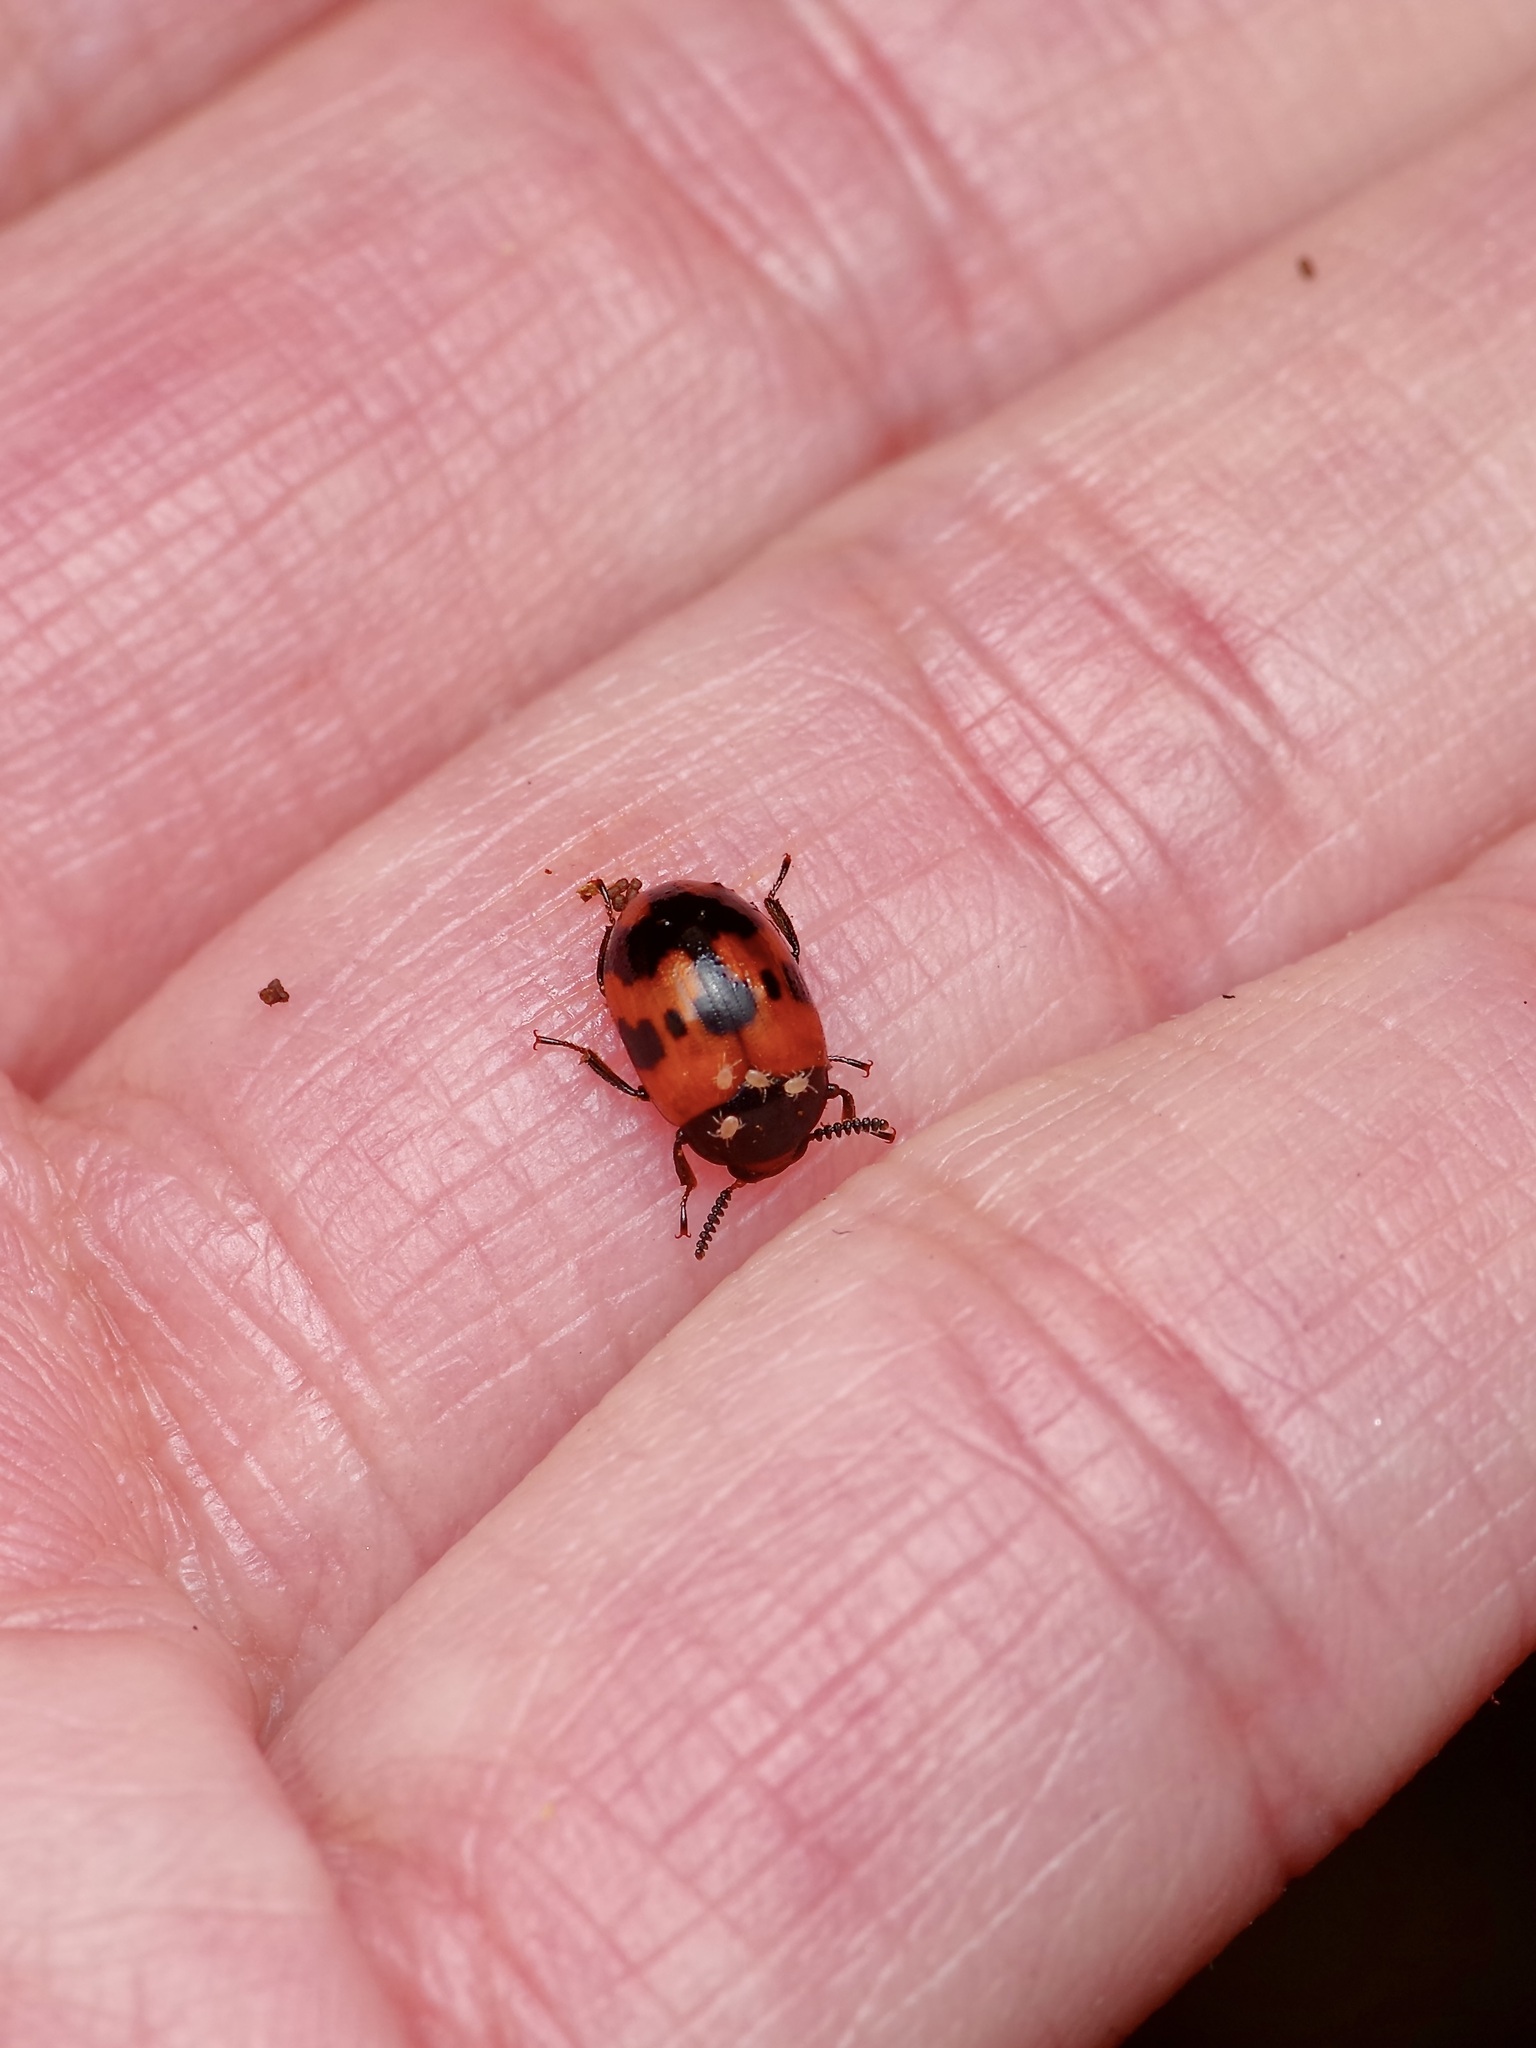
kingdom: Animalia
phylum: Arthropoda
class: Insecta
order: Coleoptera
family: Tenebrionidae
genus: Diaperis
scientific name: Diaperis nigronotata
